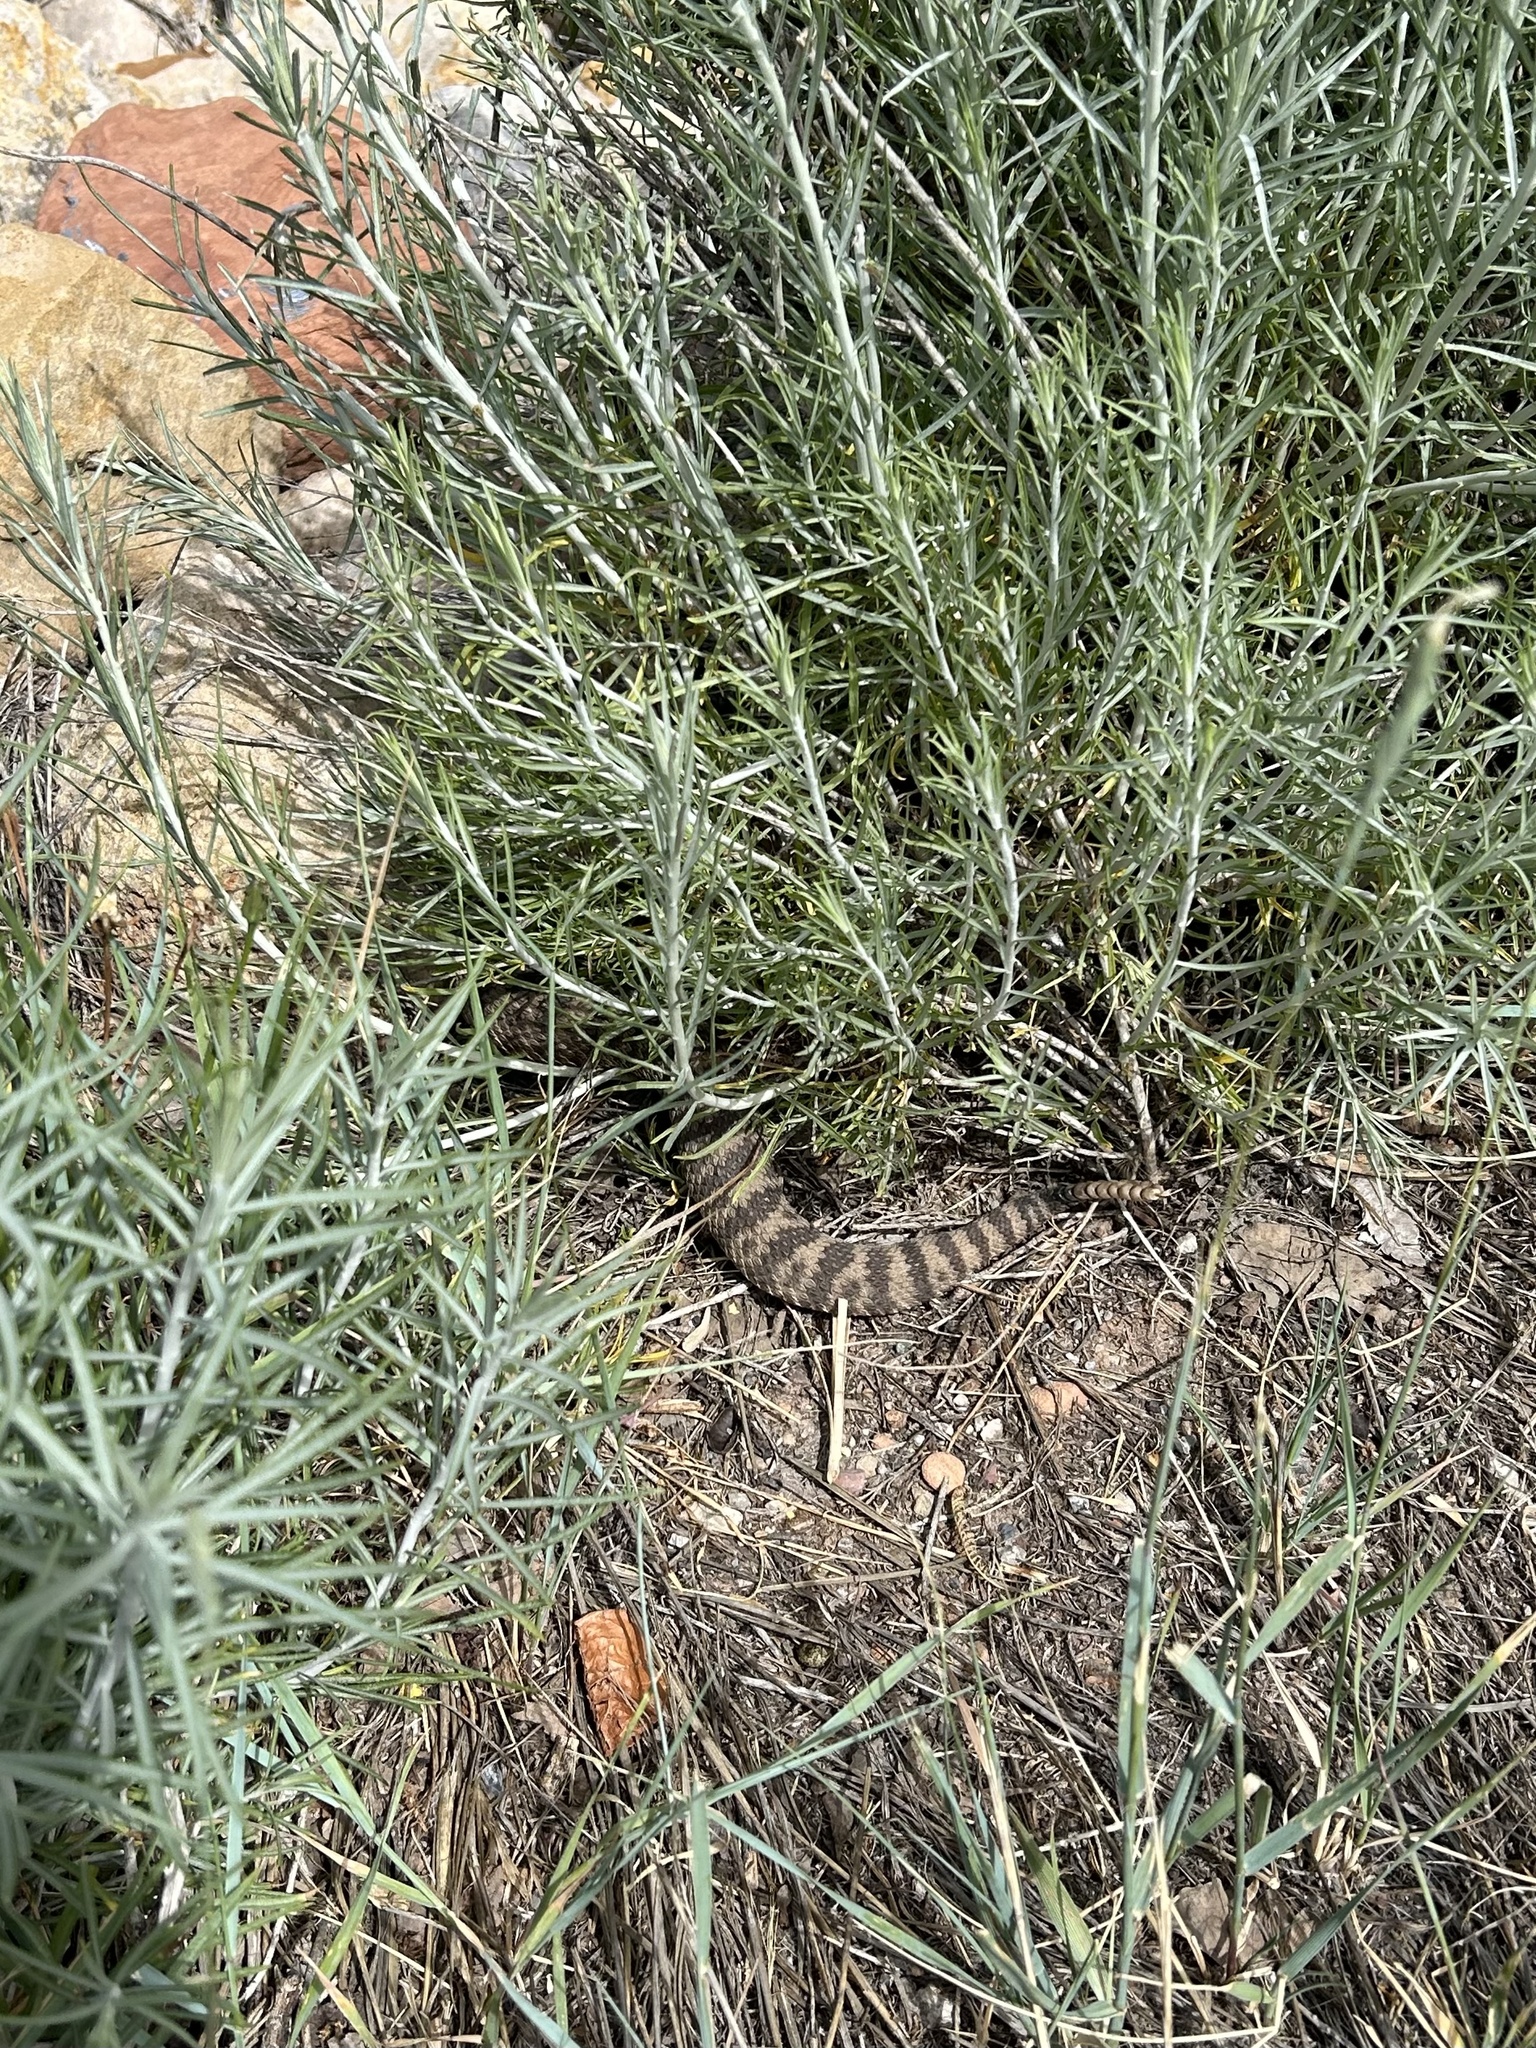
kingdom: Animalia
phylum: Chordata
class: Squamata
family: Viperidae
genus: Crotalus
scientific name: Crotalus oreganus
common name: Abyssus
